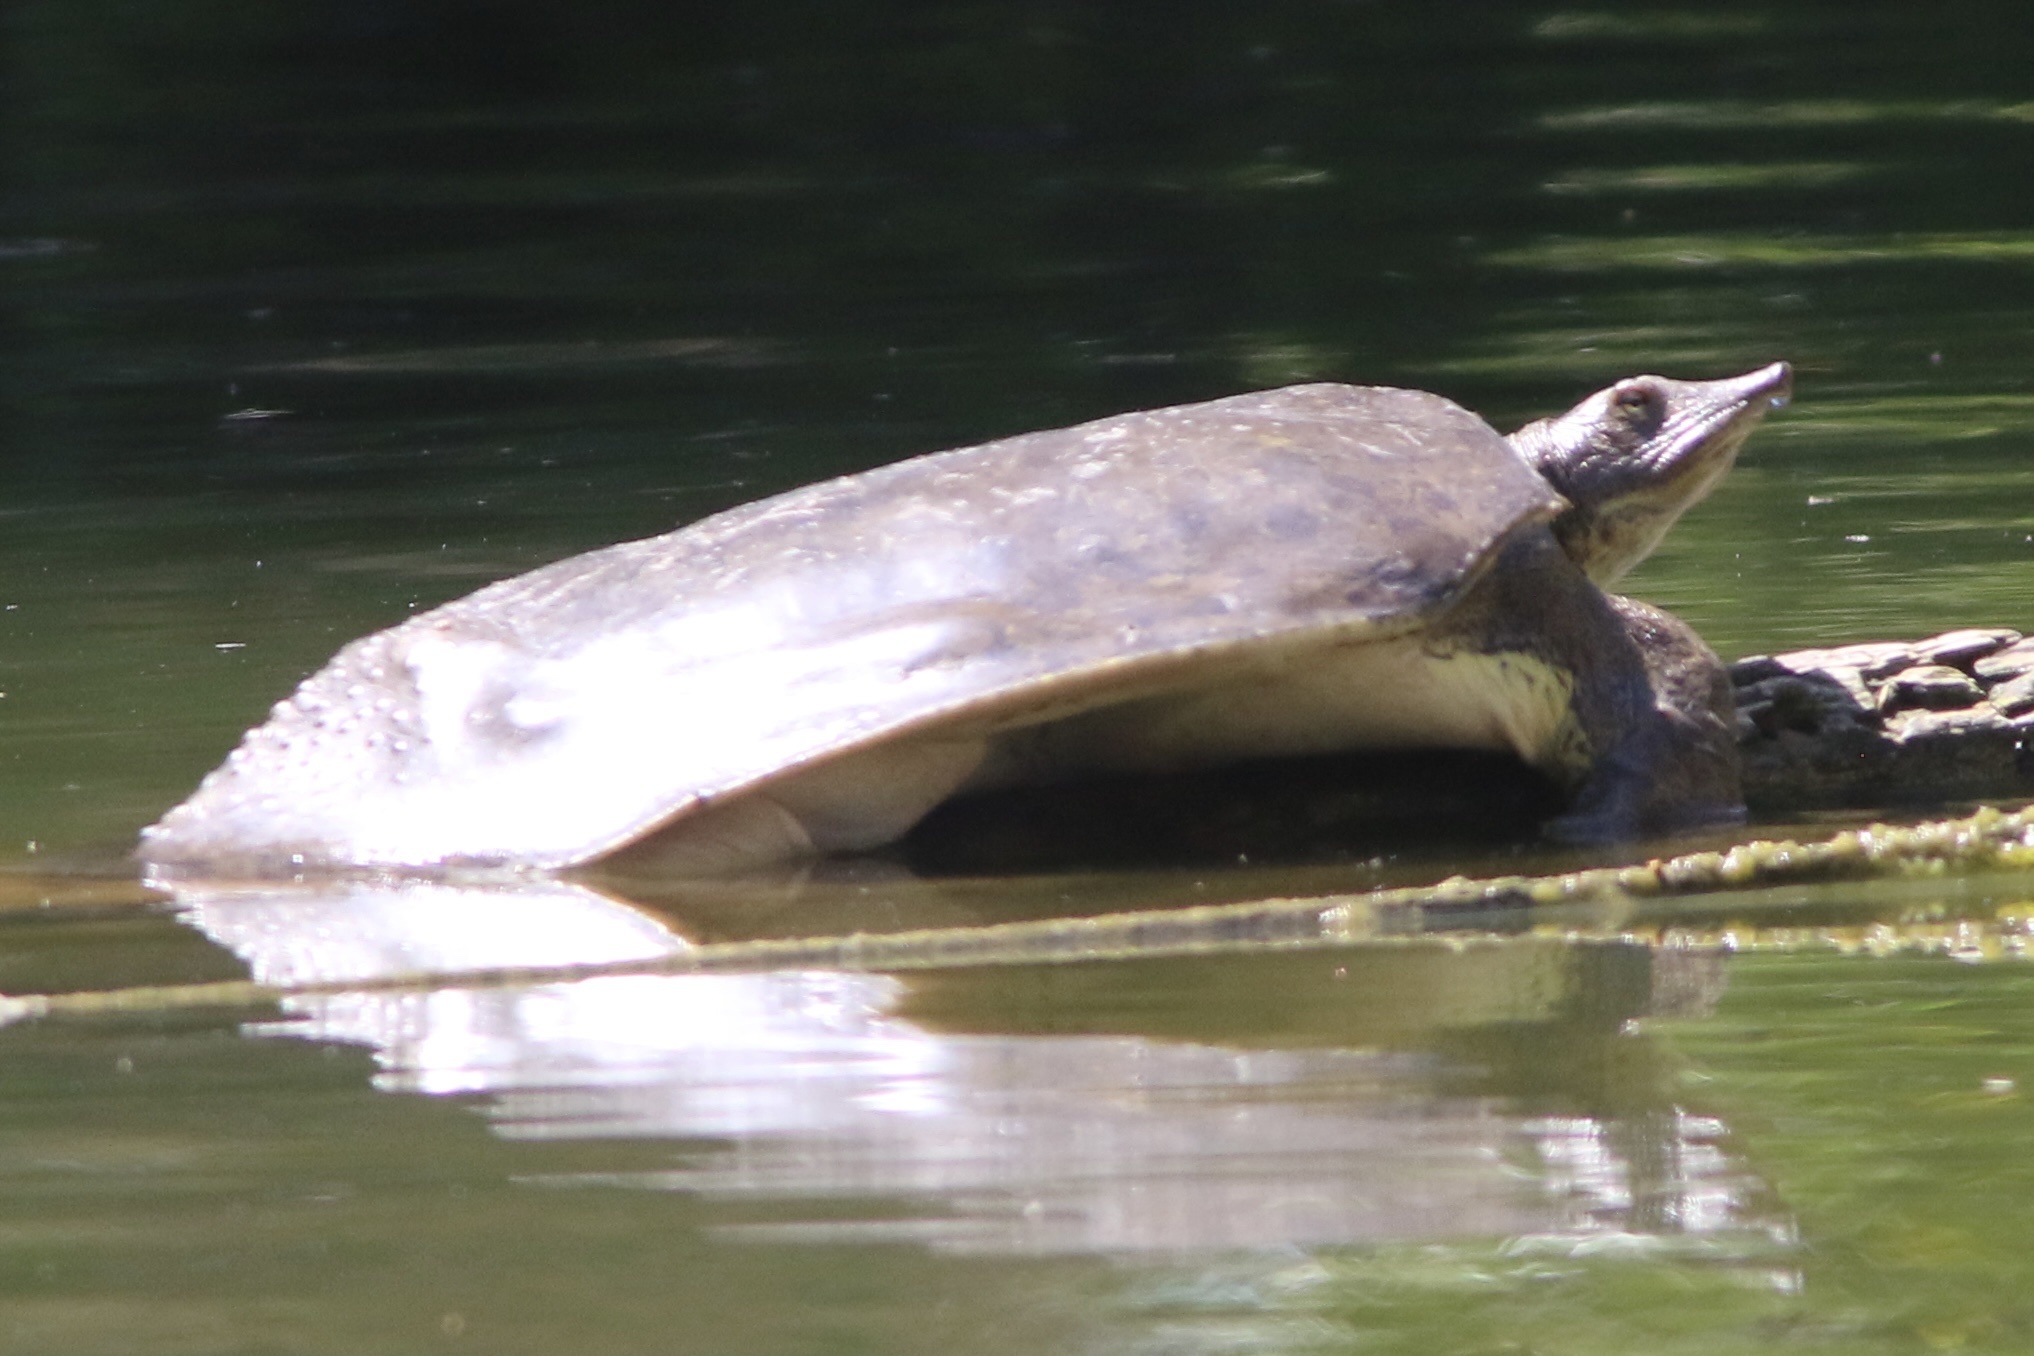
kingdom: Animalia
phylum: Chordata
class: Testudines
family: Trionychidae
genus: Apalone
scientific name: Apalone spinifera
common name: Spiny softshell turtle
